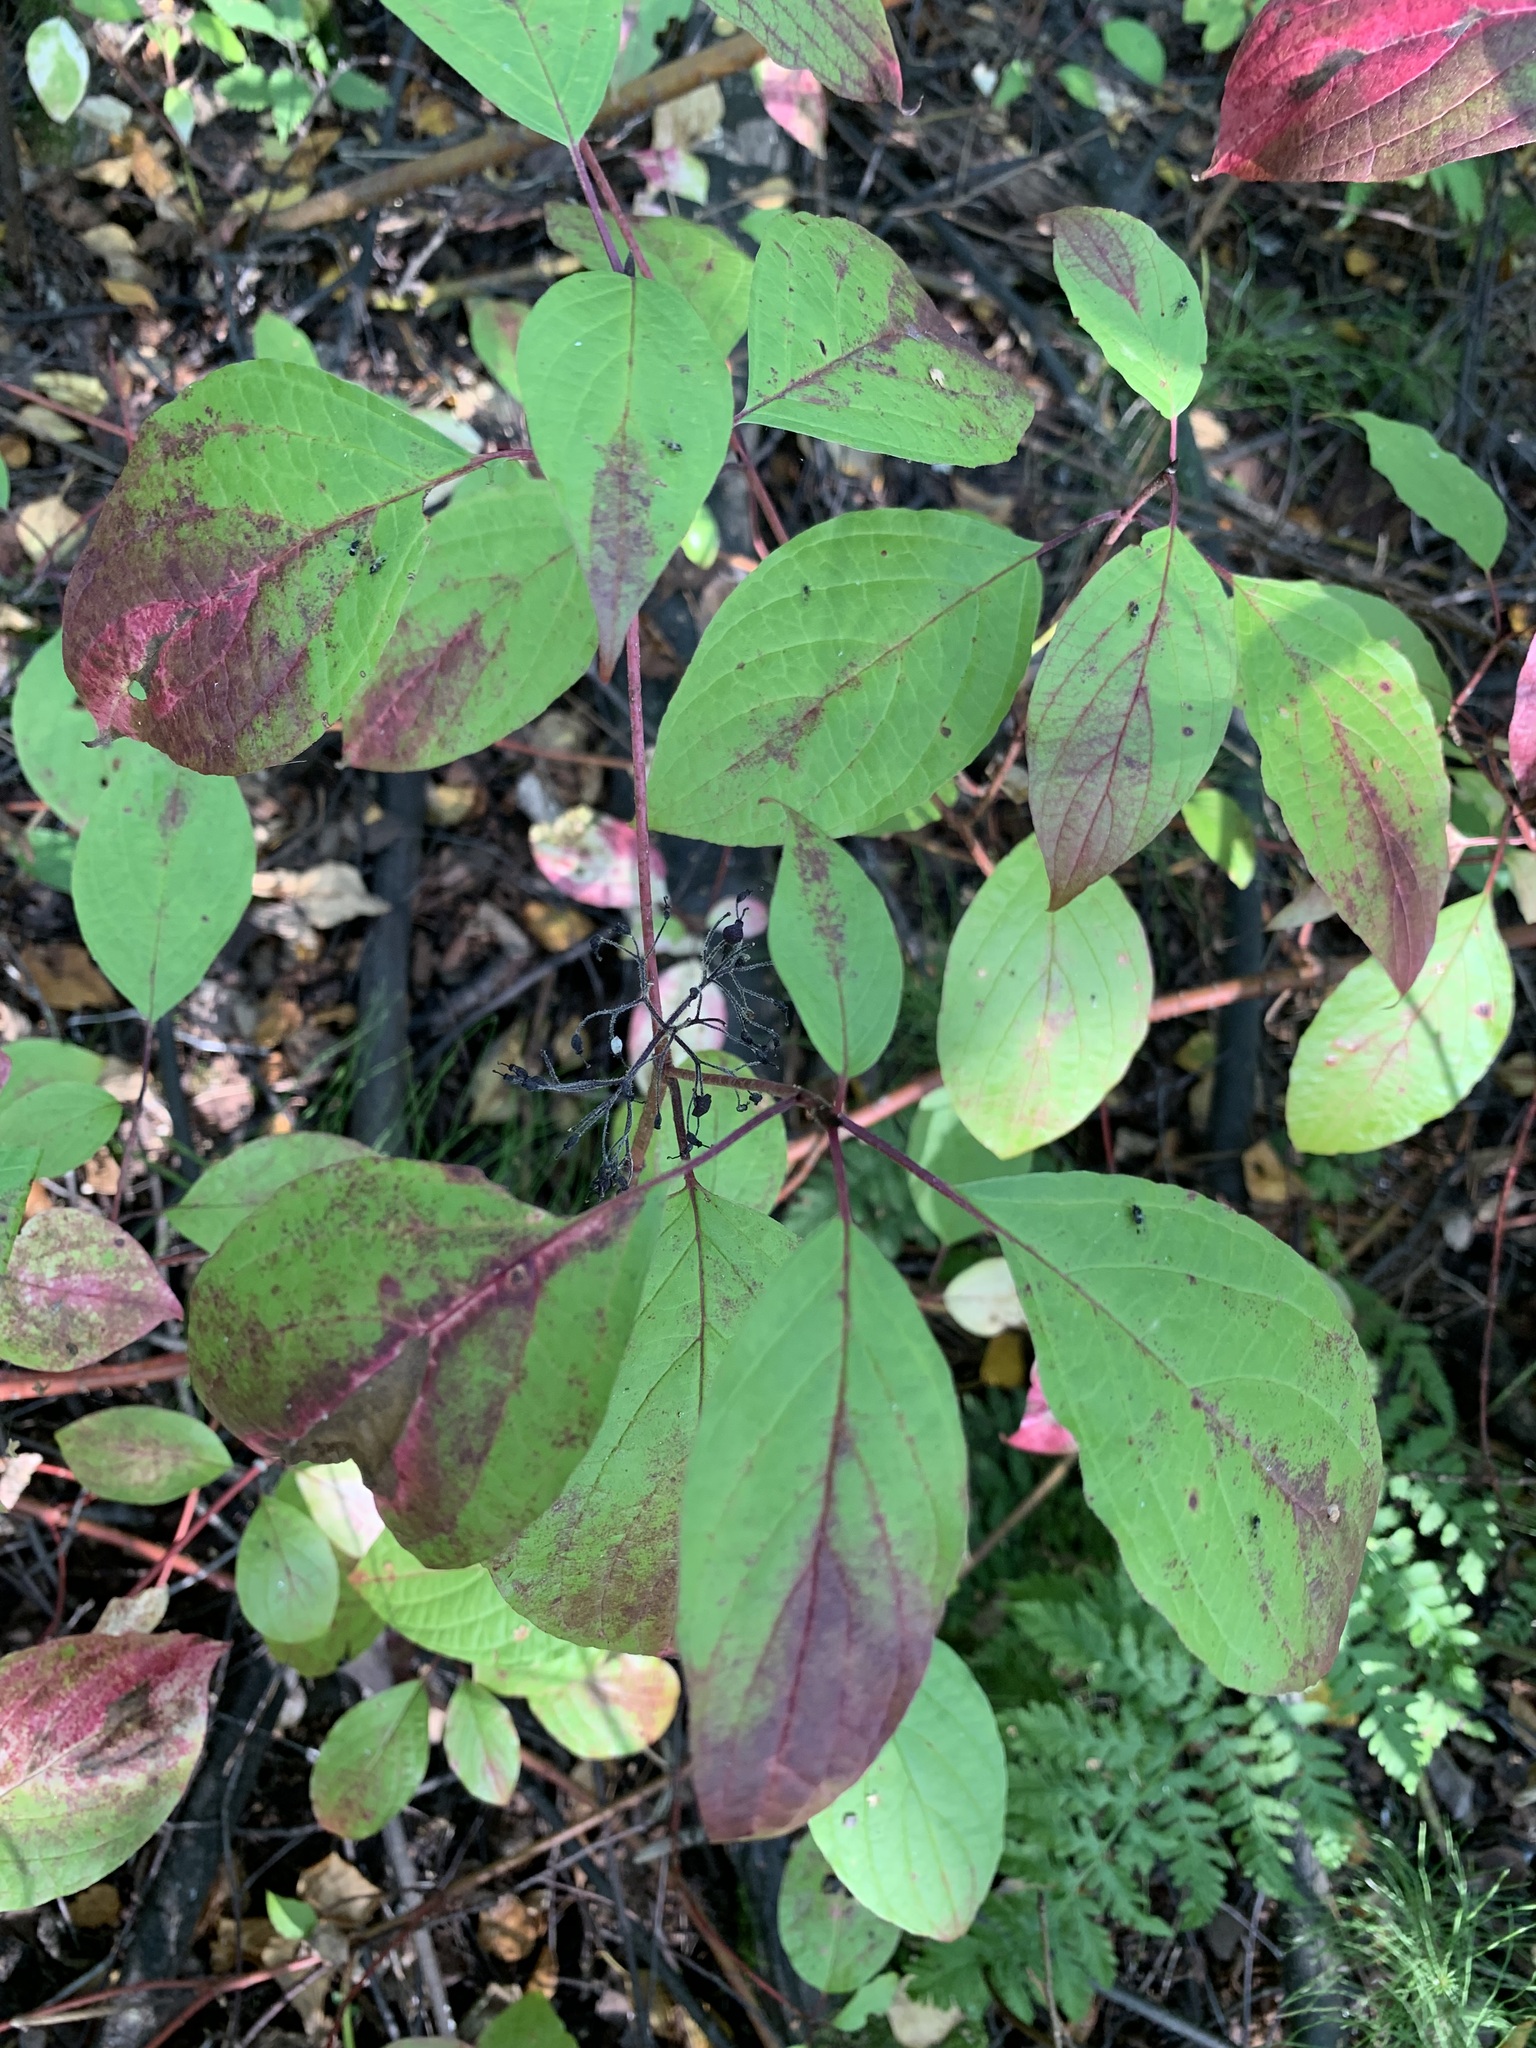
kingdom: Plantae
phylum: Tracheophyta
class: Magnoliopsida
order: Cornales
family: Cornaceae
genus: Cornus
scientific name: Cornus alba
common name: White dogwood
